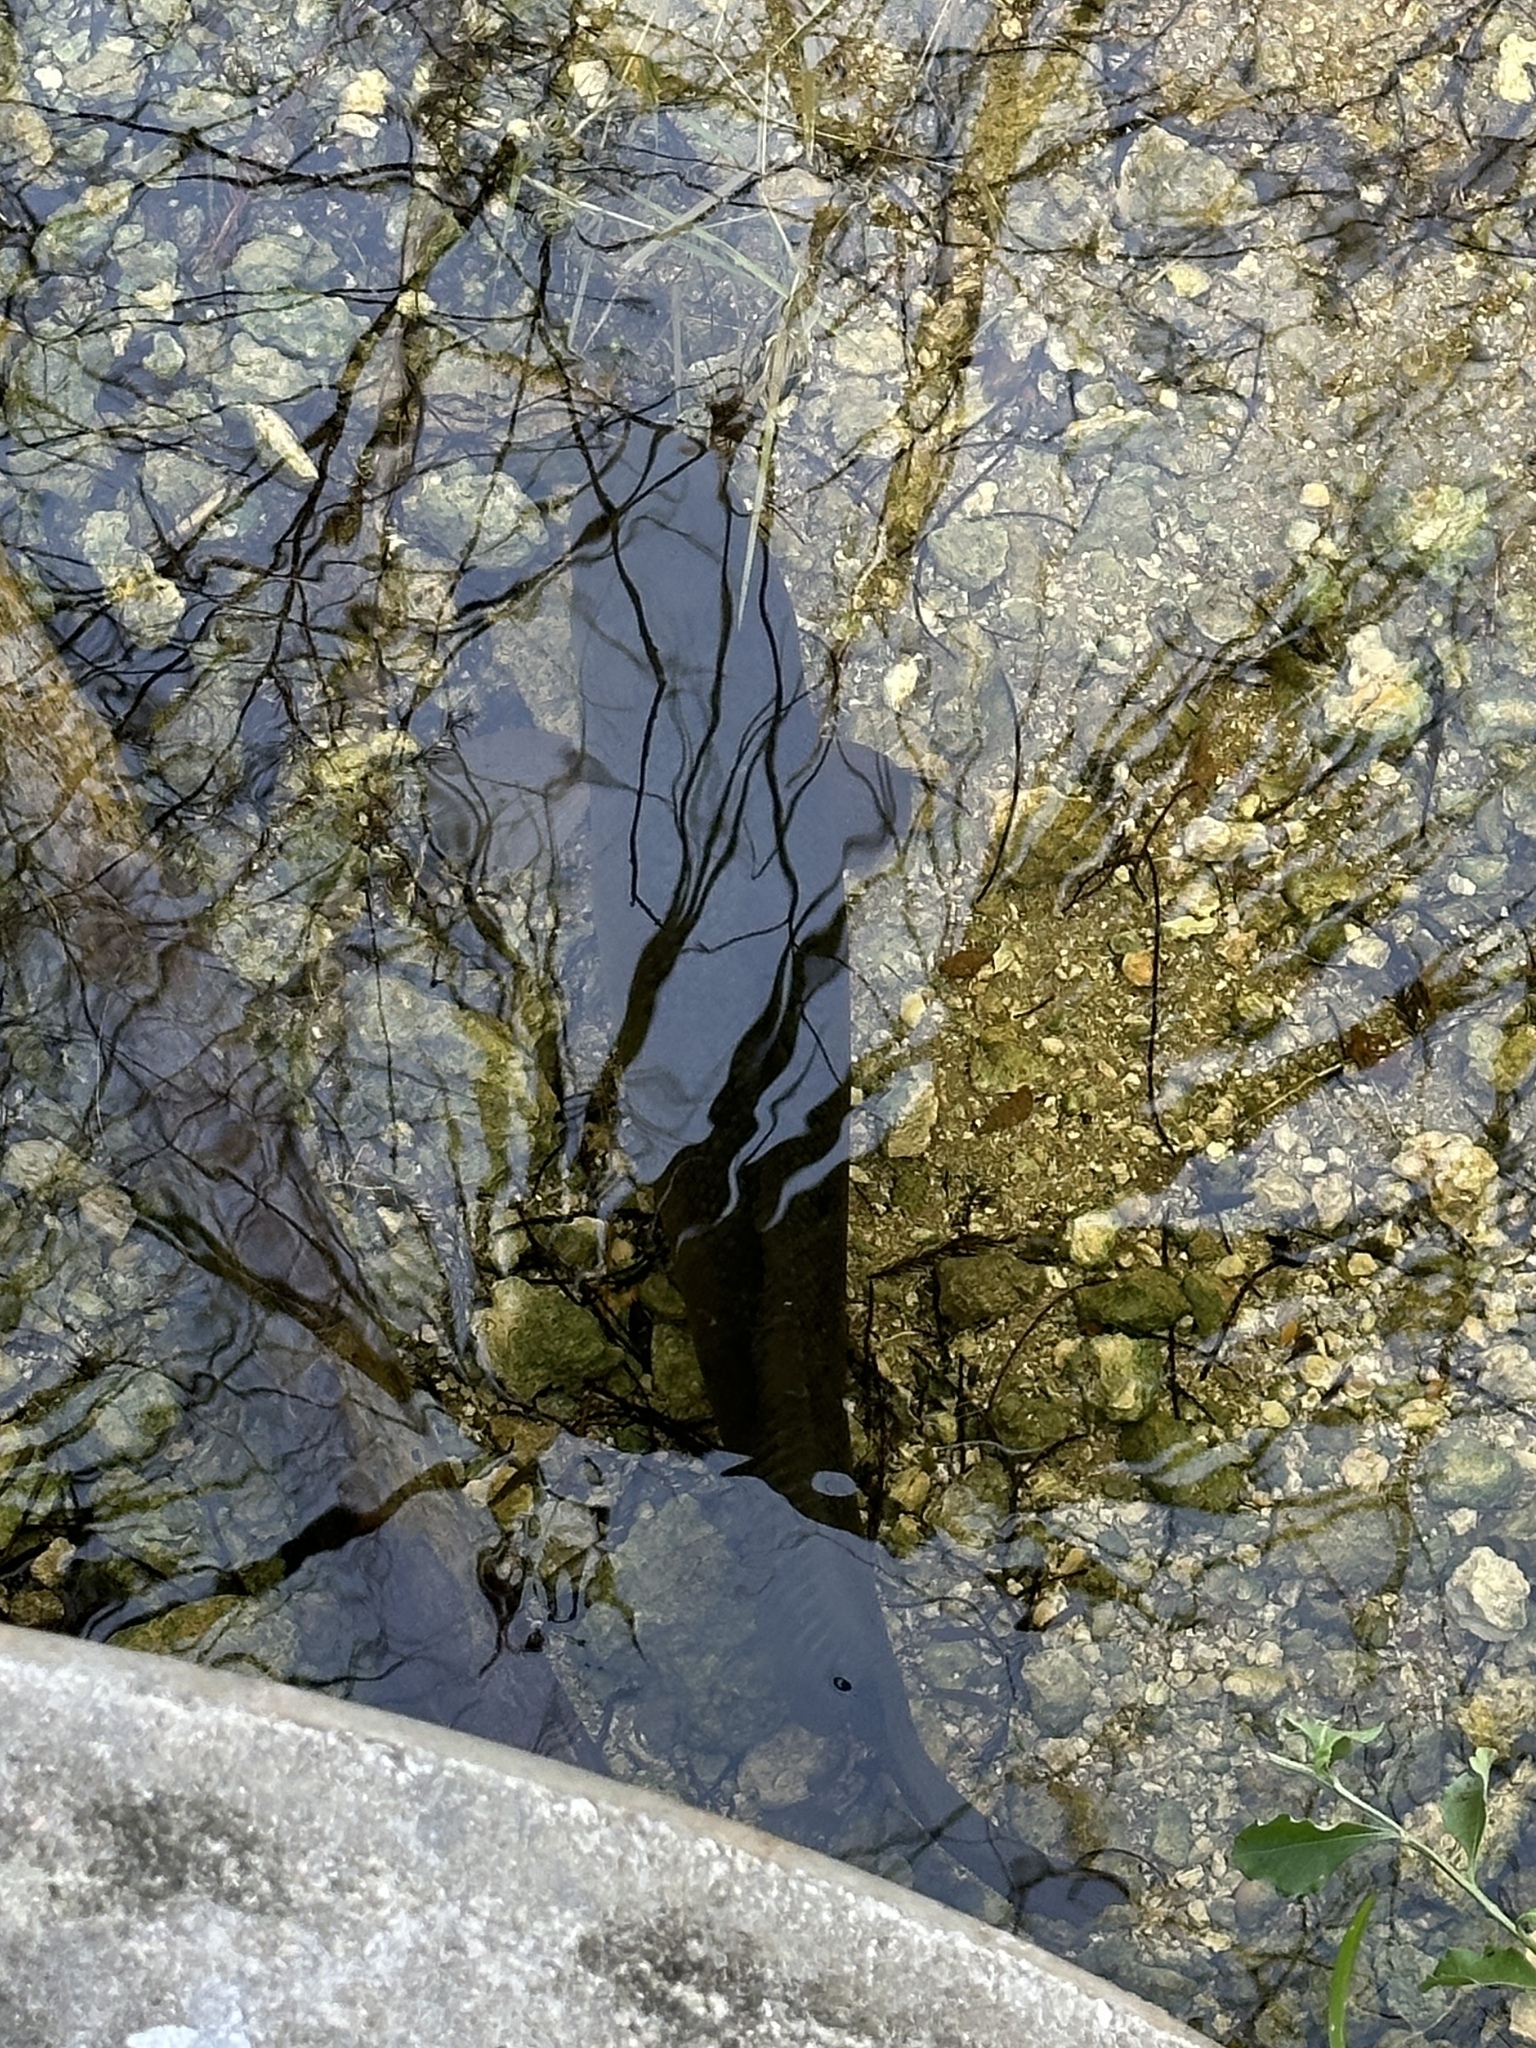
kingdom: Animalia
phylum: Chordata
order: Amiiformes
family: Amiidae
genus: Amia
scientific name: Amia calva
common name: Bowfin
